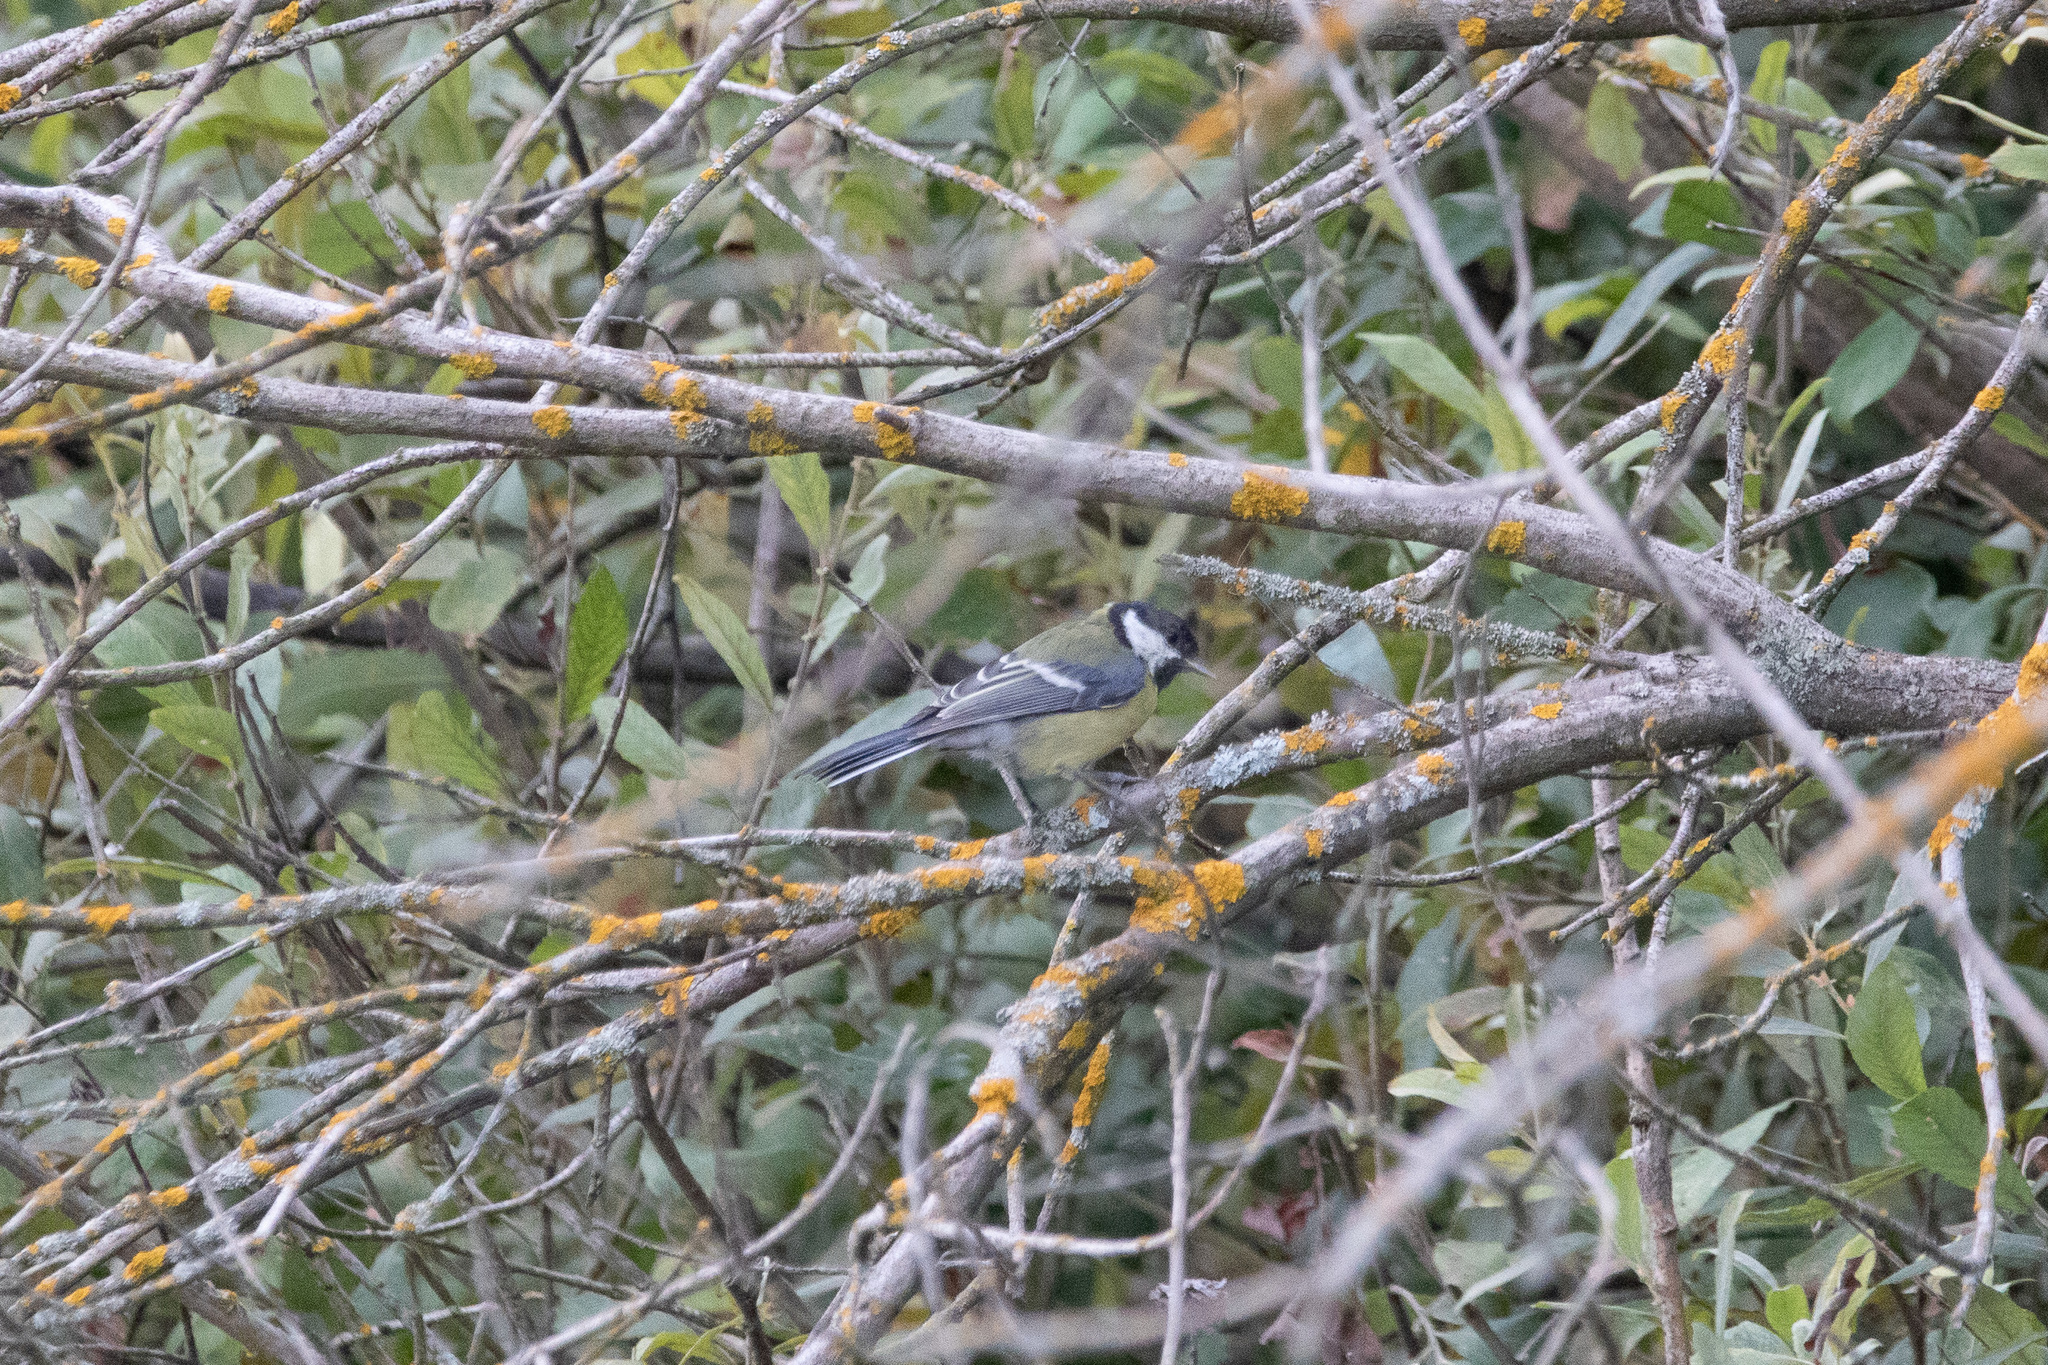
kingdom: Animalia
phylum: Chordata
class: Aves
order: Passeriformes
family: Paridae
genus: Parus
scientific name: Parus major
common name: Great tit
